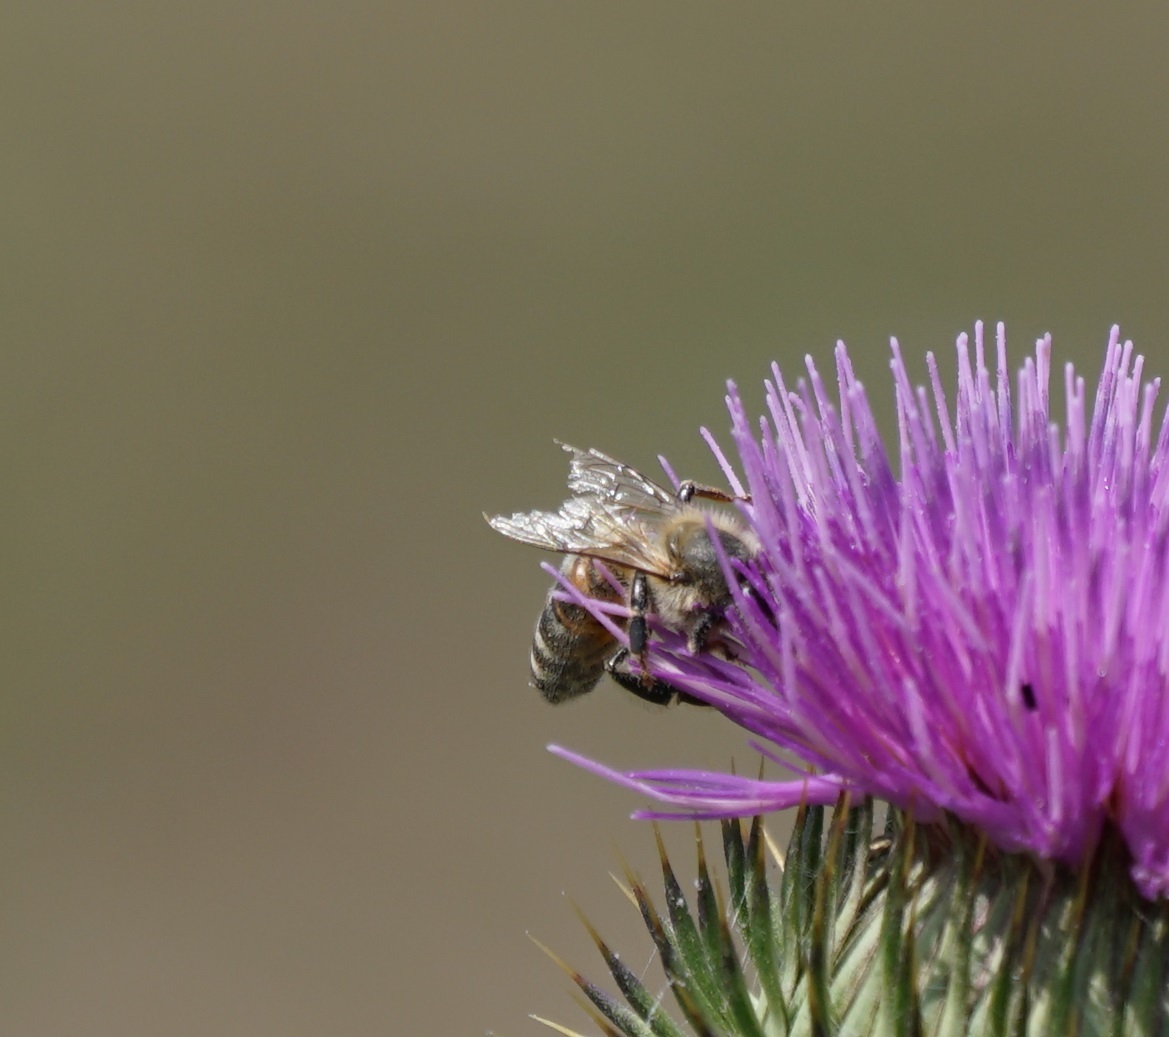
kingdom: Animalia
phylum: Arthropoda
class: Insecta
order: Hymenoptera
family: Apidae
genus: Apis
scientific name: Apis mellifera
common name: Honey bee
